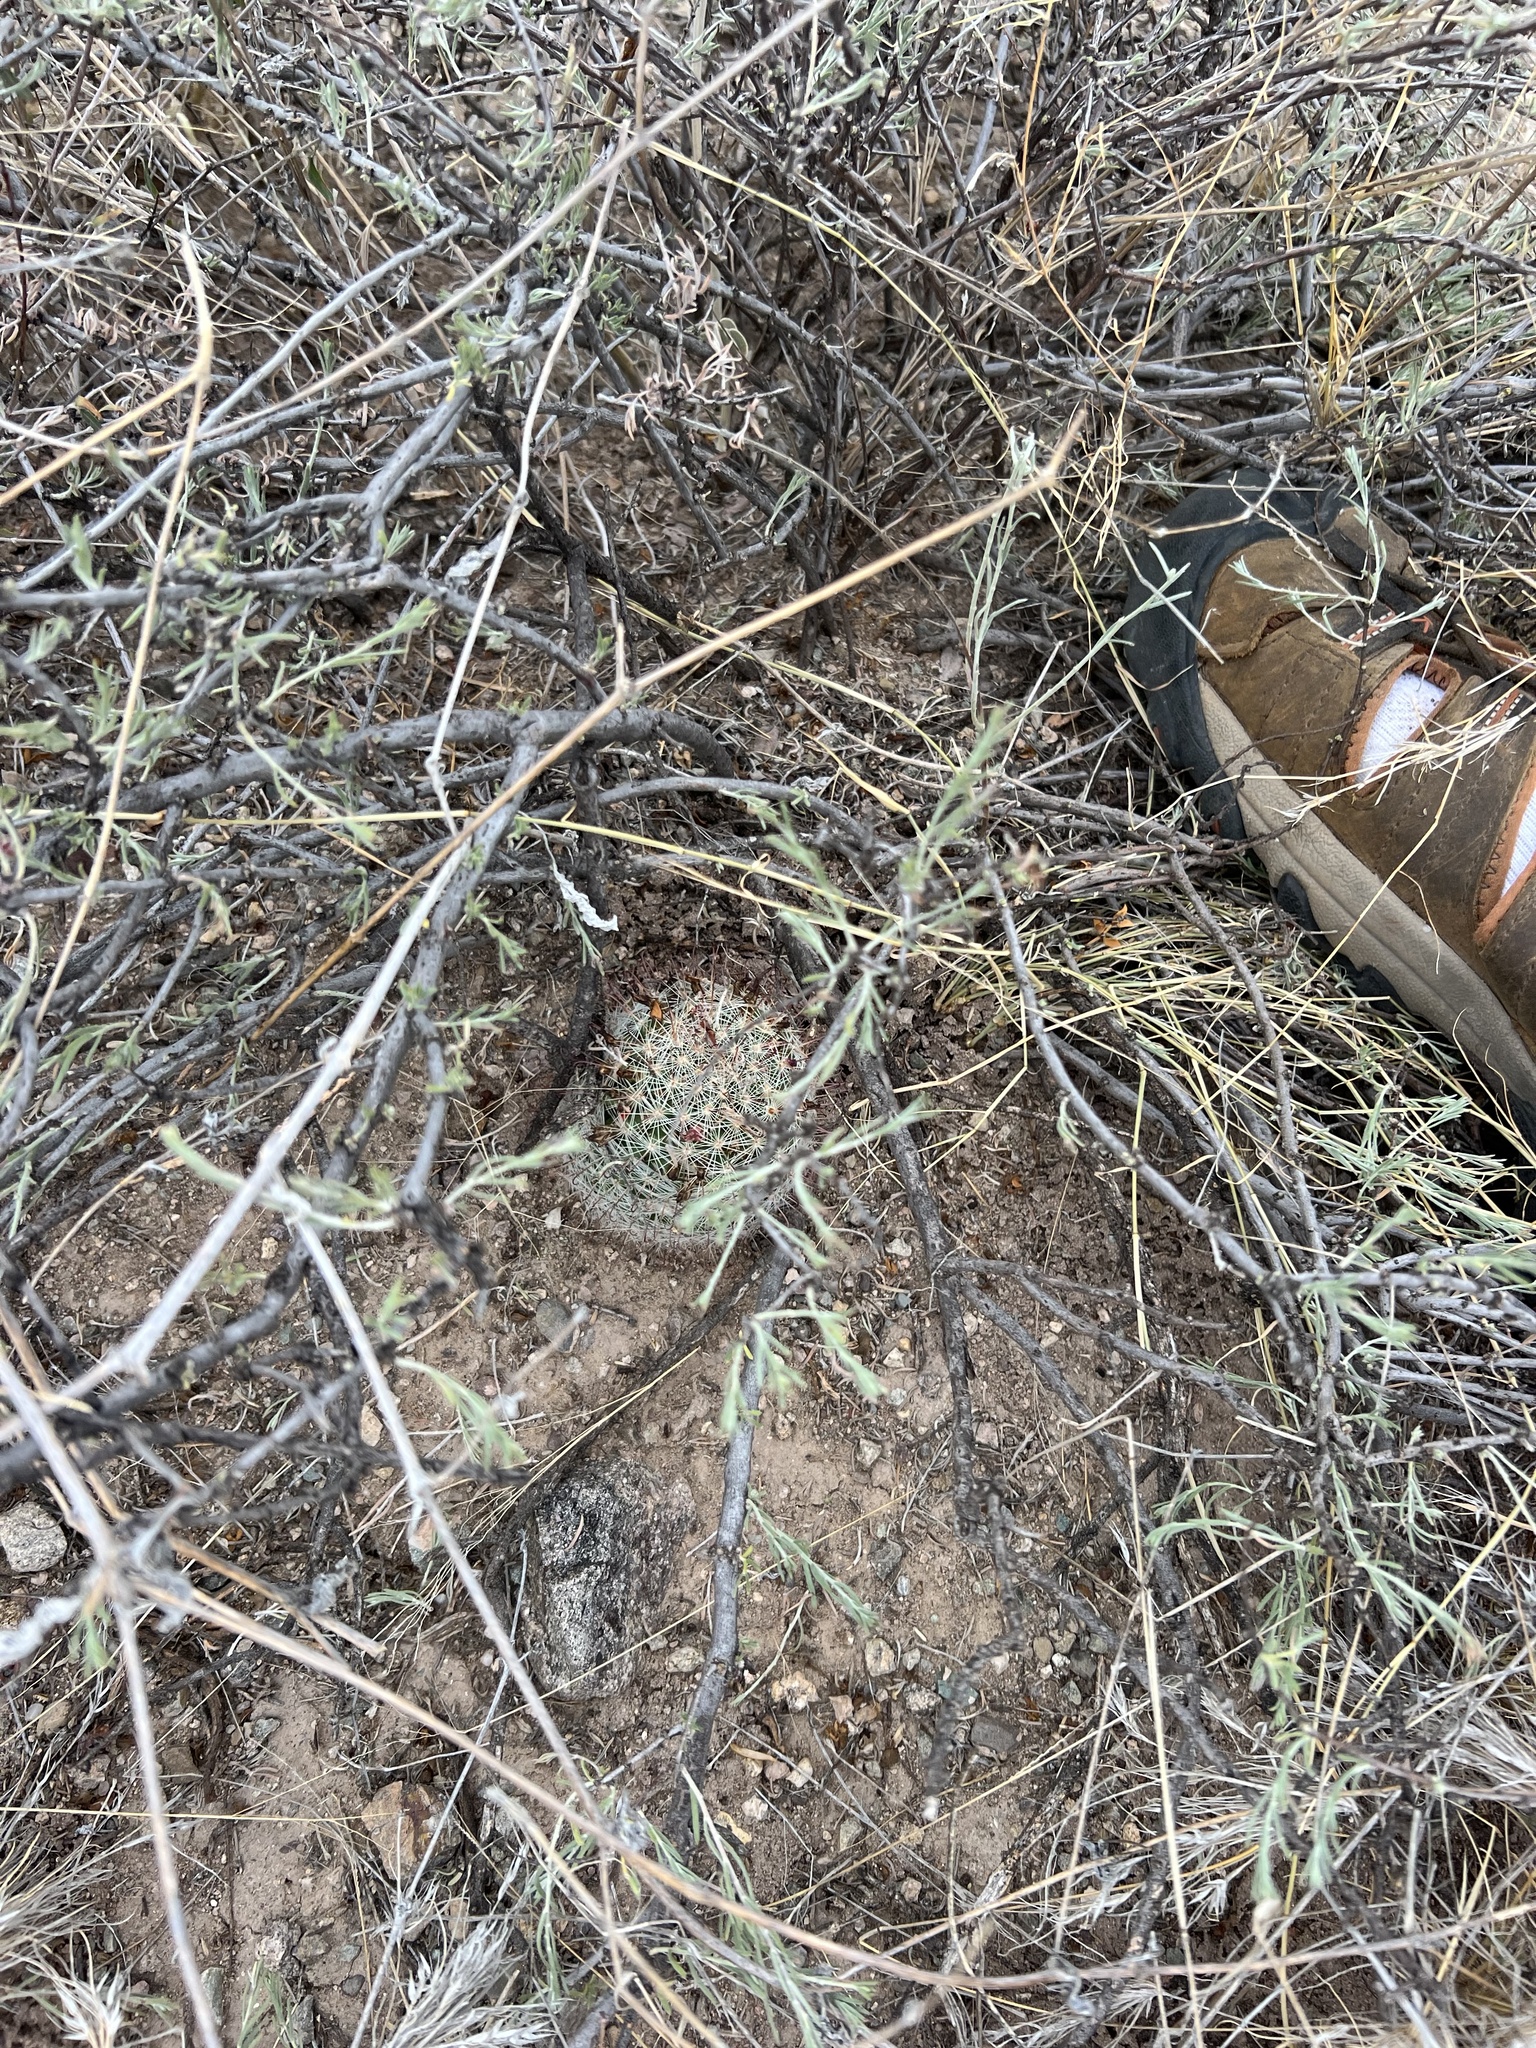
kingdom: Plantae
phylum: Tracheophyta
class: Magnoliopsida
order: Caryophyllales
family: Cactaceae
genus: Cochemiea
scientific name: Cochemiea grahamii
